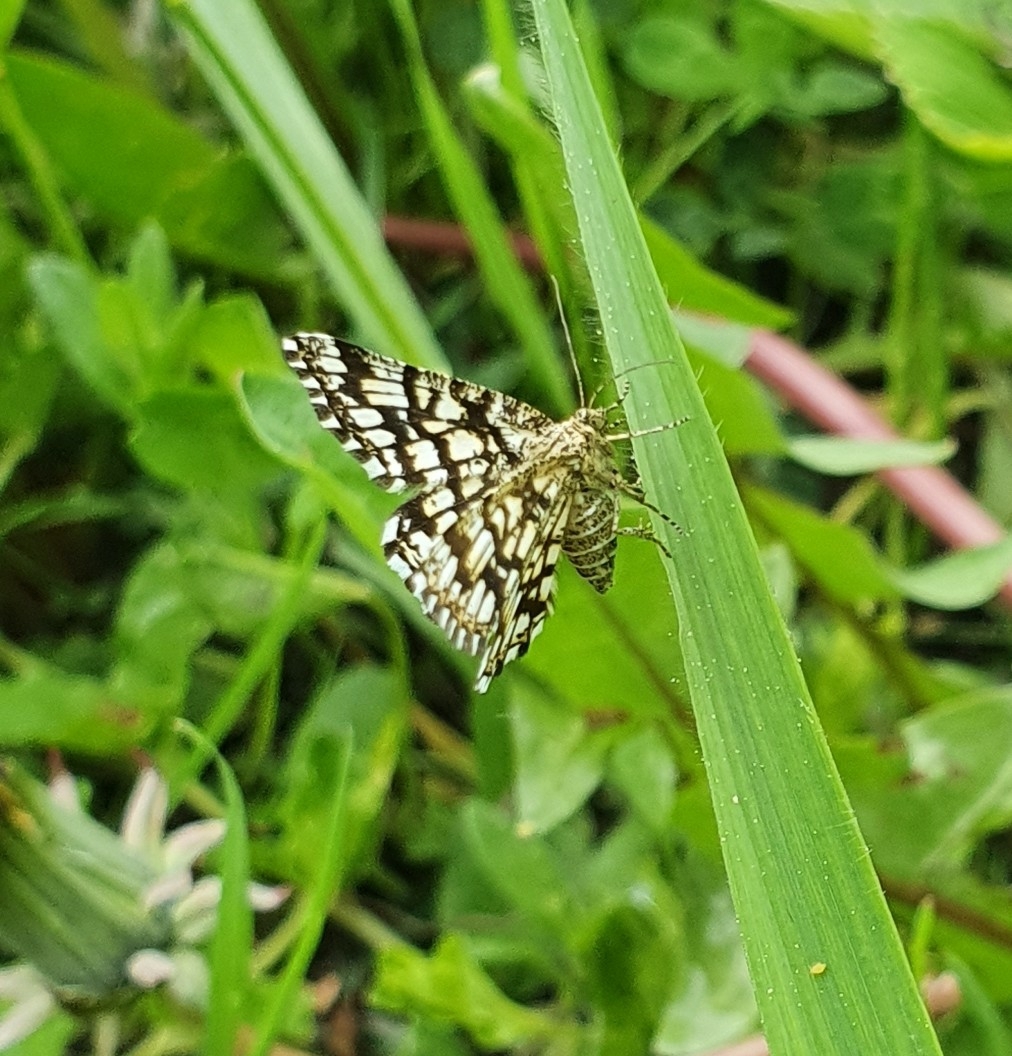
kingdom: Animalia
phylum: Arthropoda
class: Insecta
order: Lepidoptera
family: Geometridae
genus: Chiasmia
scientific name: Chiasmia clathrata
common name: Latticed heath
